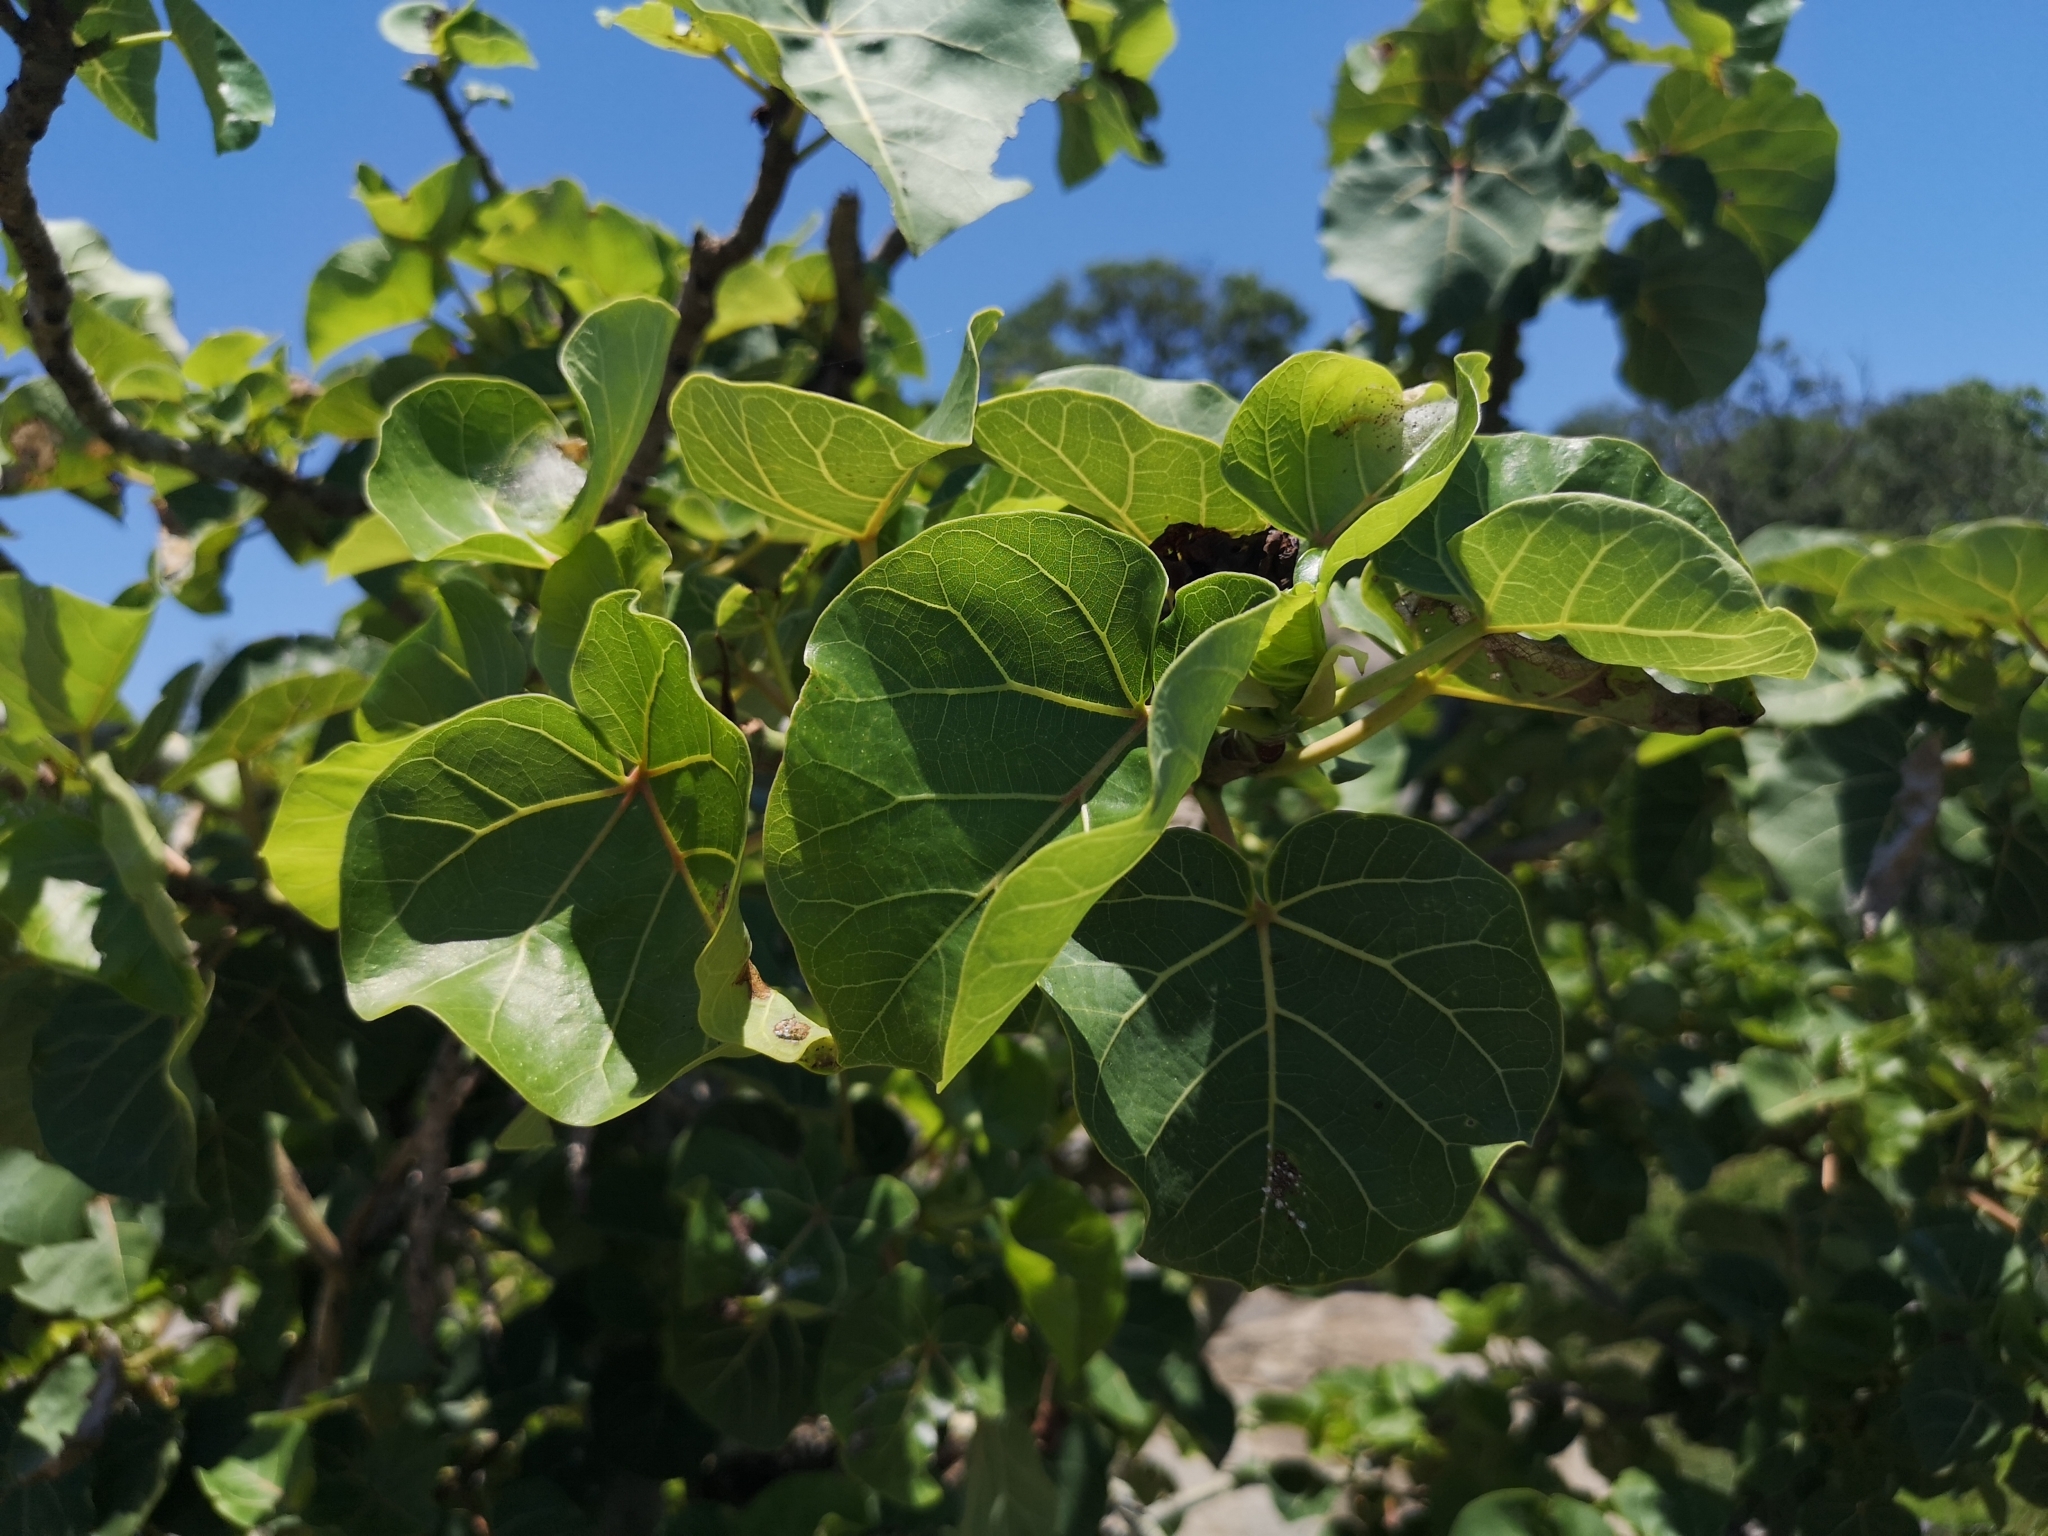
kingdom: Plantae
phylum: Tracheophyta
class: Magnoliopsida
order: Rosales
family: Moraceae
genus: Ficus
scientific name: Ficus abutilifolia
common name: Large-leaved rock fig
